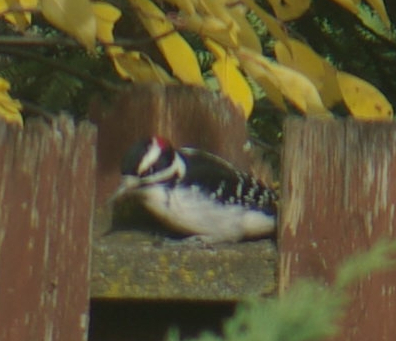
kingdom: Animalia
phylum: Chordata
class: Aves
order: Piciformes
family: Picidae
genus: Leuconotopicus
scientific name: Leuconotopicus villosus
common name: Hairy woodpecker
